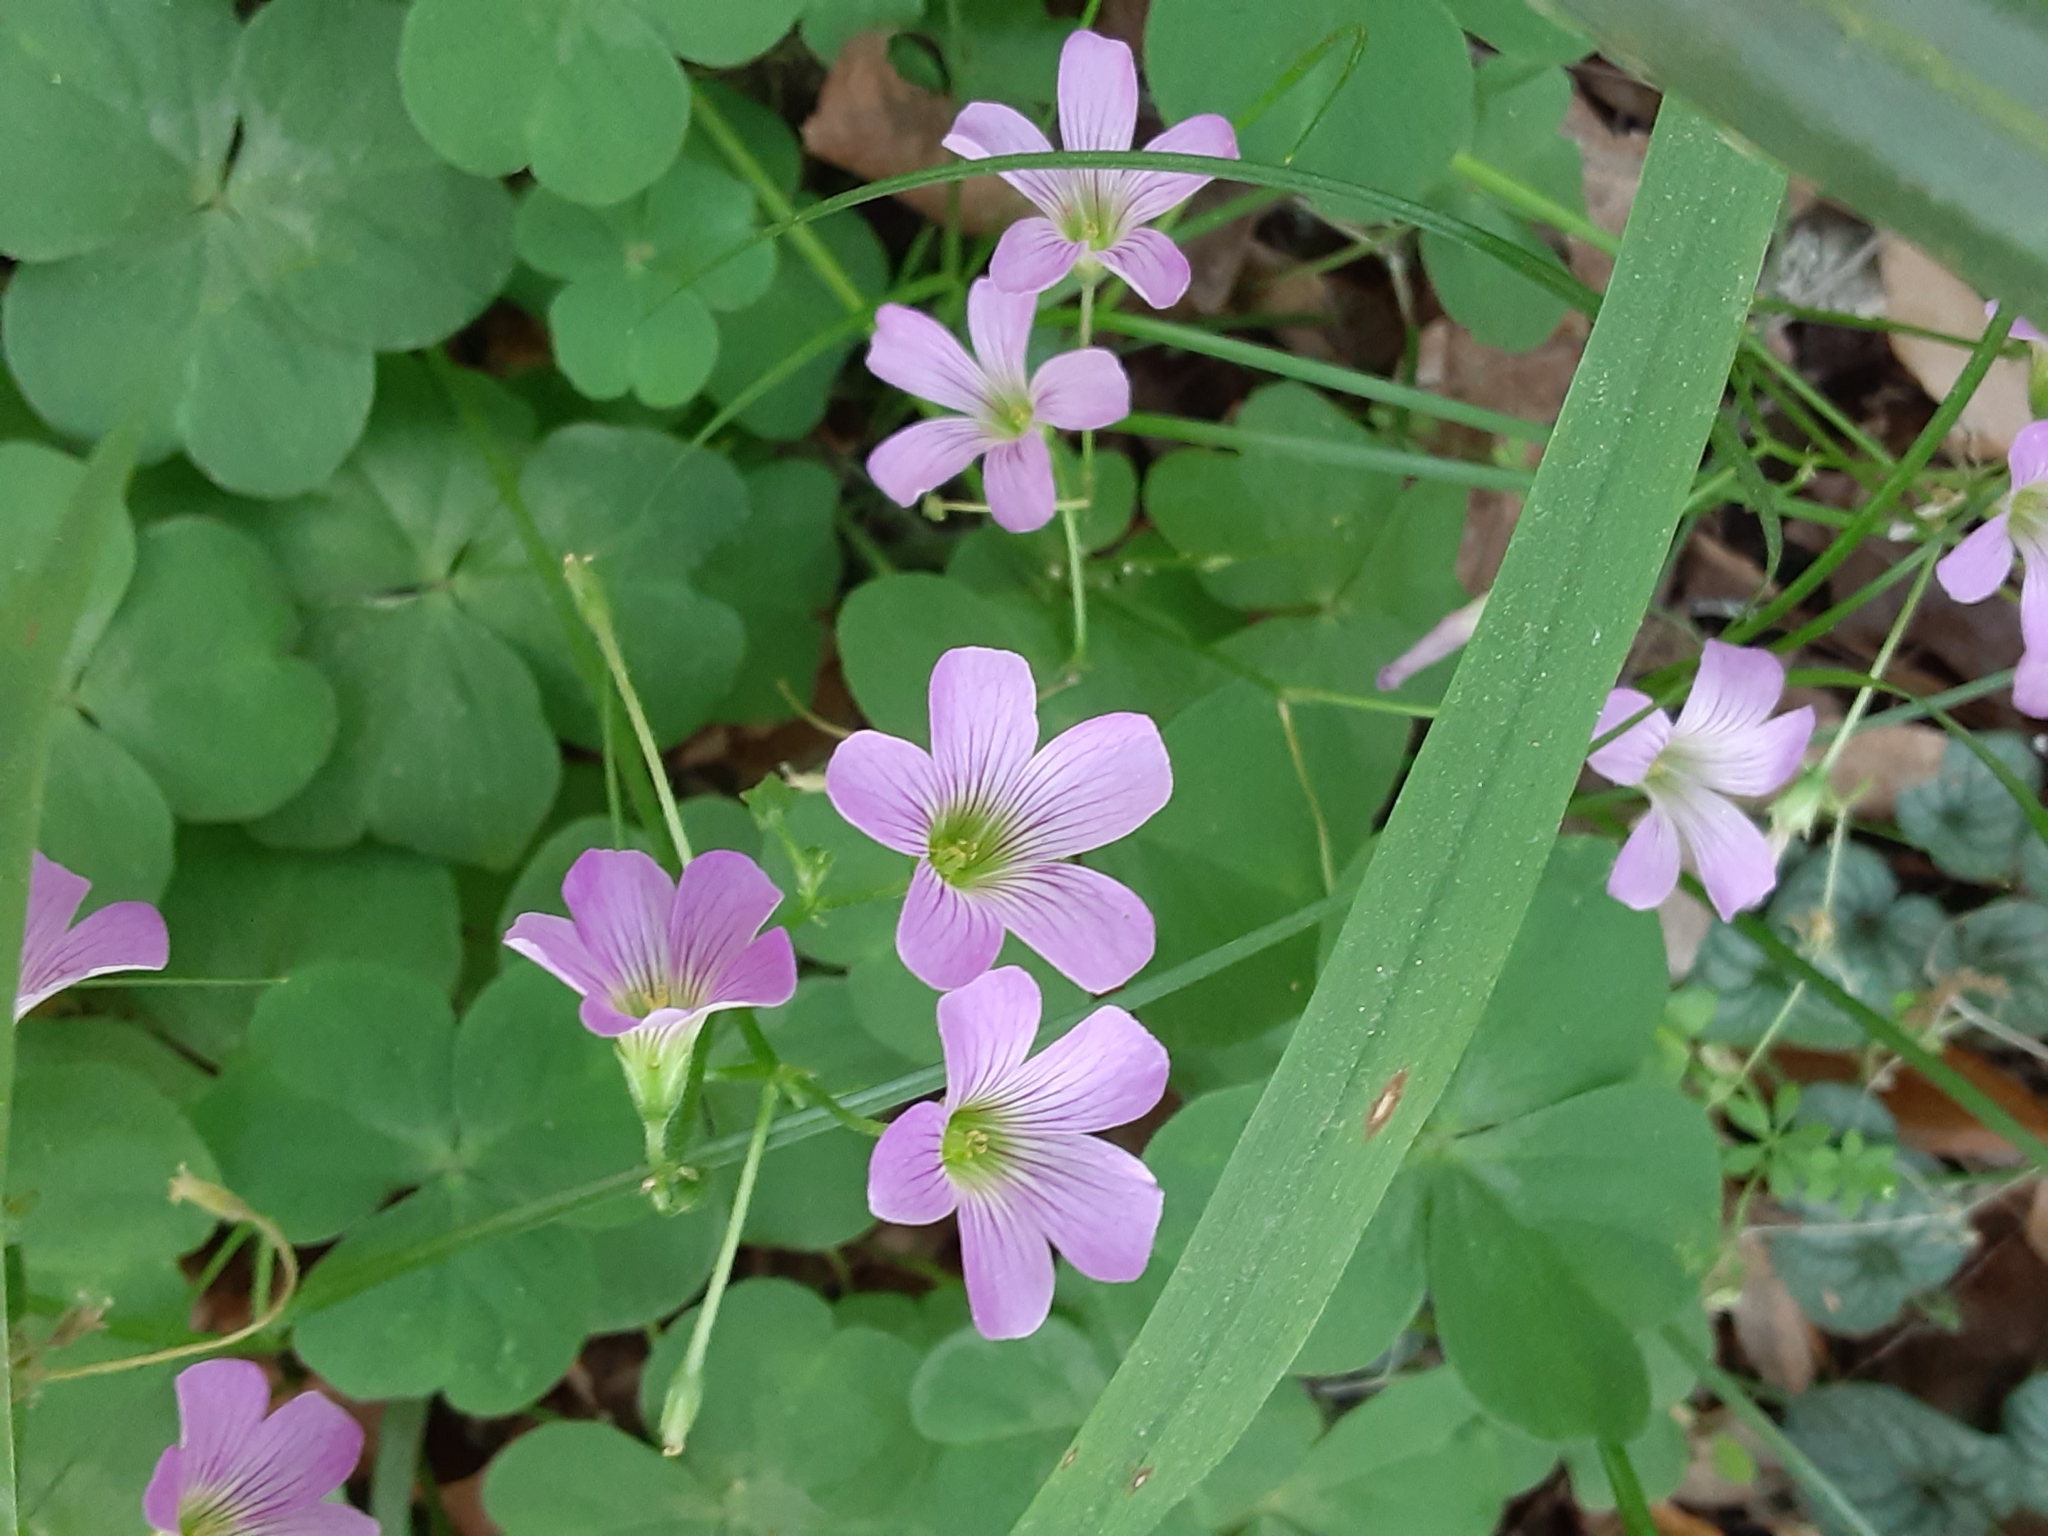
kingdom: Plantae
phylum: Tracheophyta
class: Magnoliopsida
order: Oxalidales
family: Oxalidaceae
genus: Oxalis
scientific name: Oxalis debilis
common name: Large-flowered pink-sorrel
